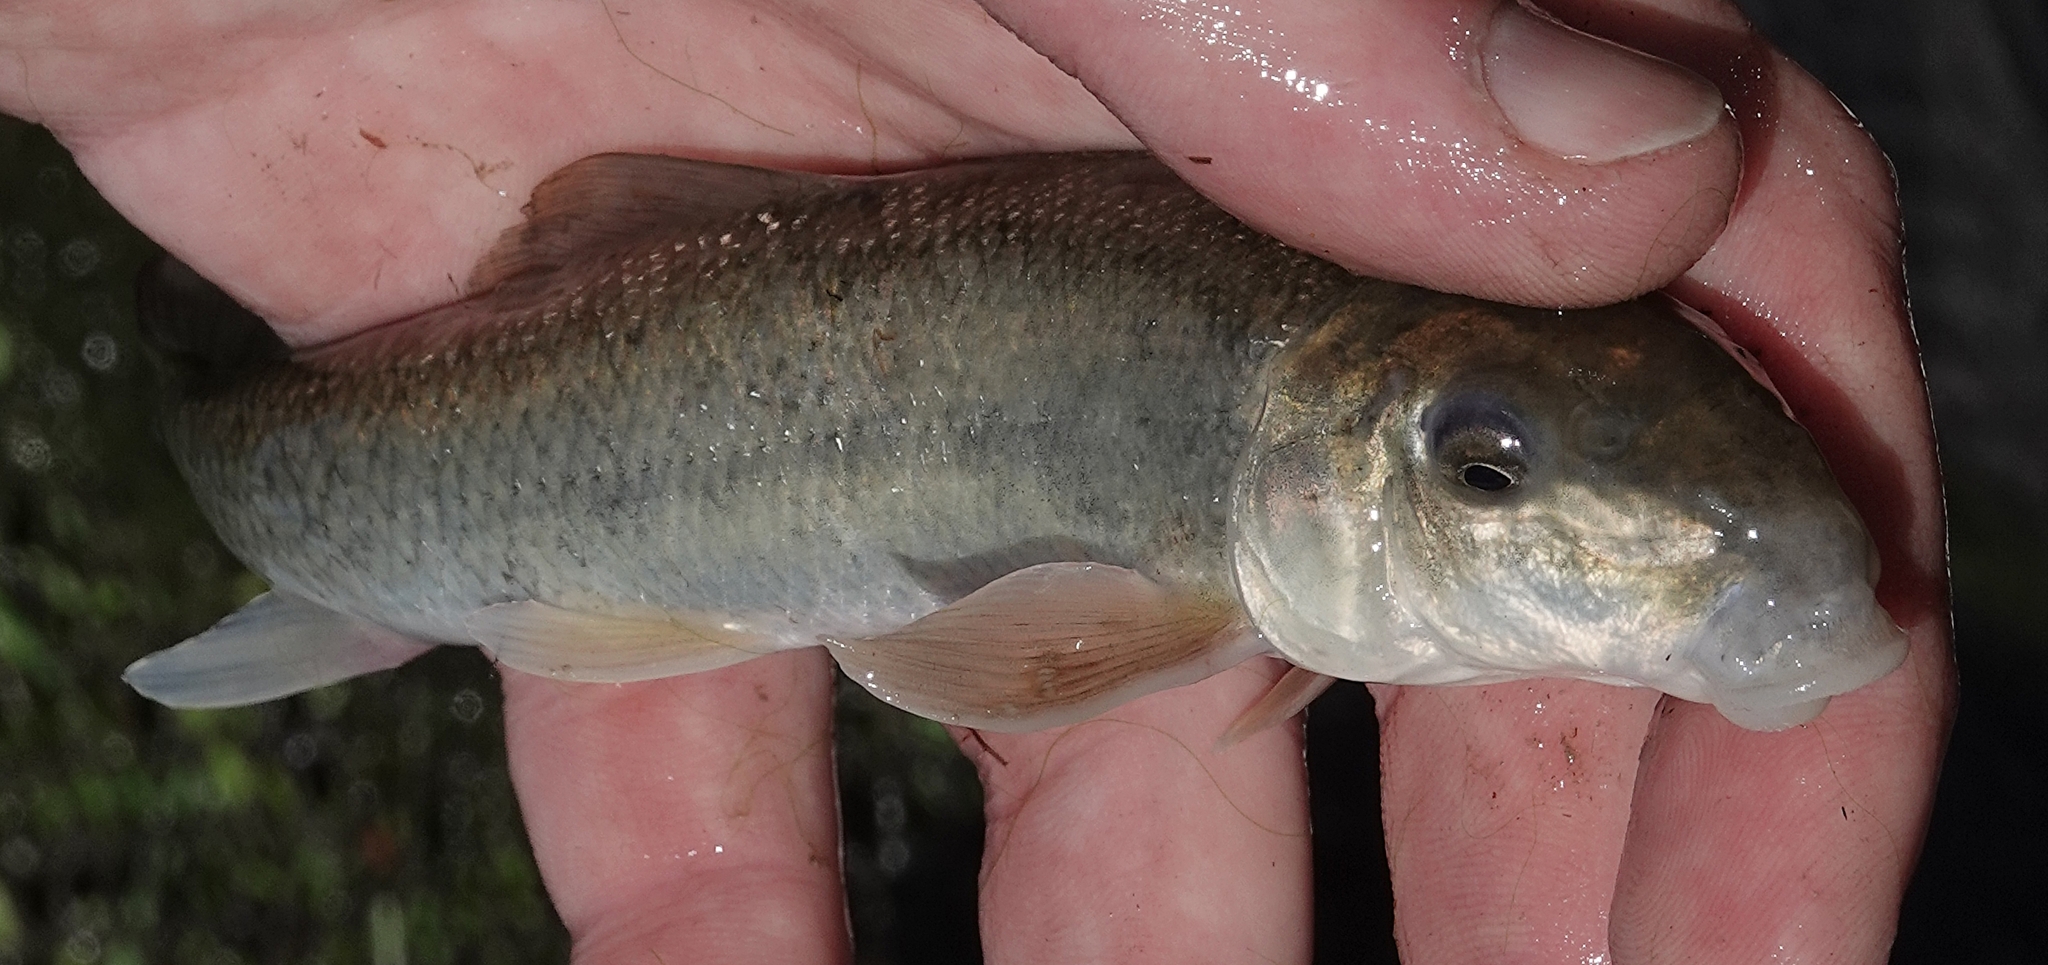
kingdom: Animalia
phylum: Chordata
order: Cypriniformes
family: Catostomidae
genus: Catostomus
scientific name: Catostomus commersonii
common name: White sucker
